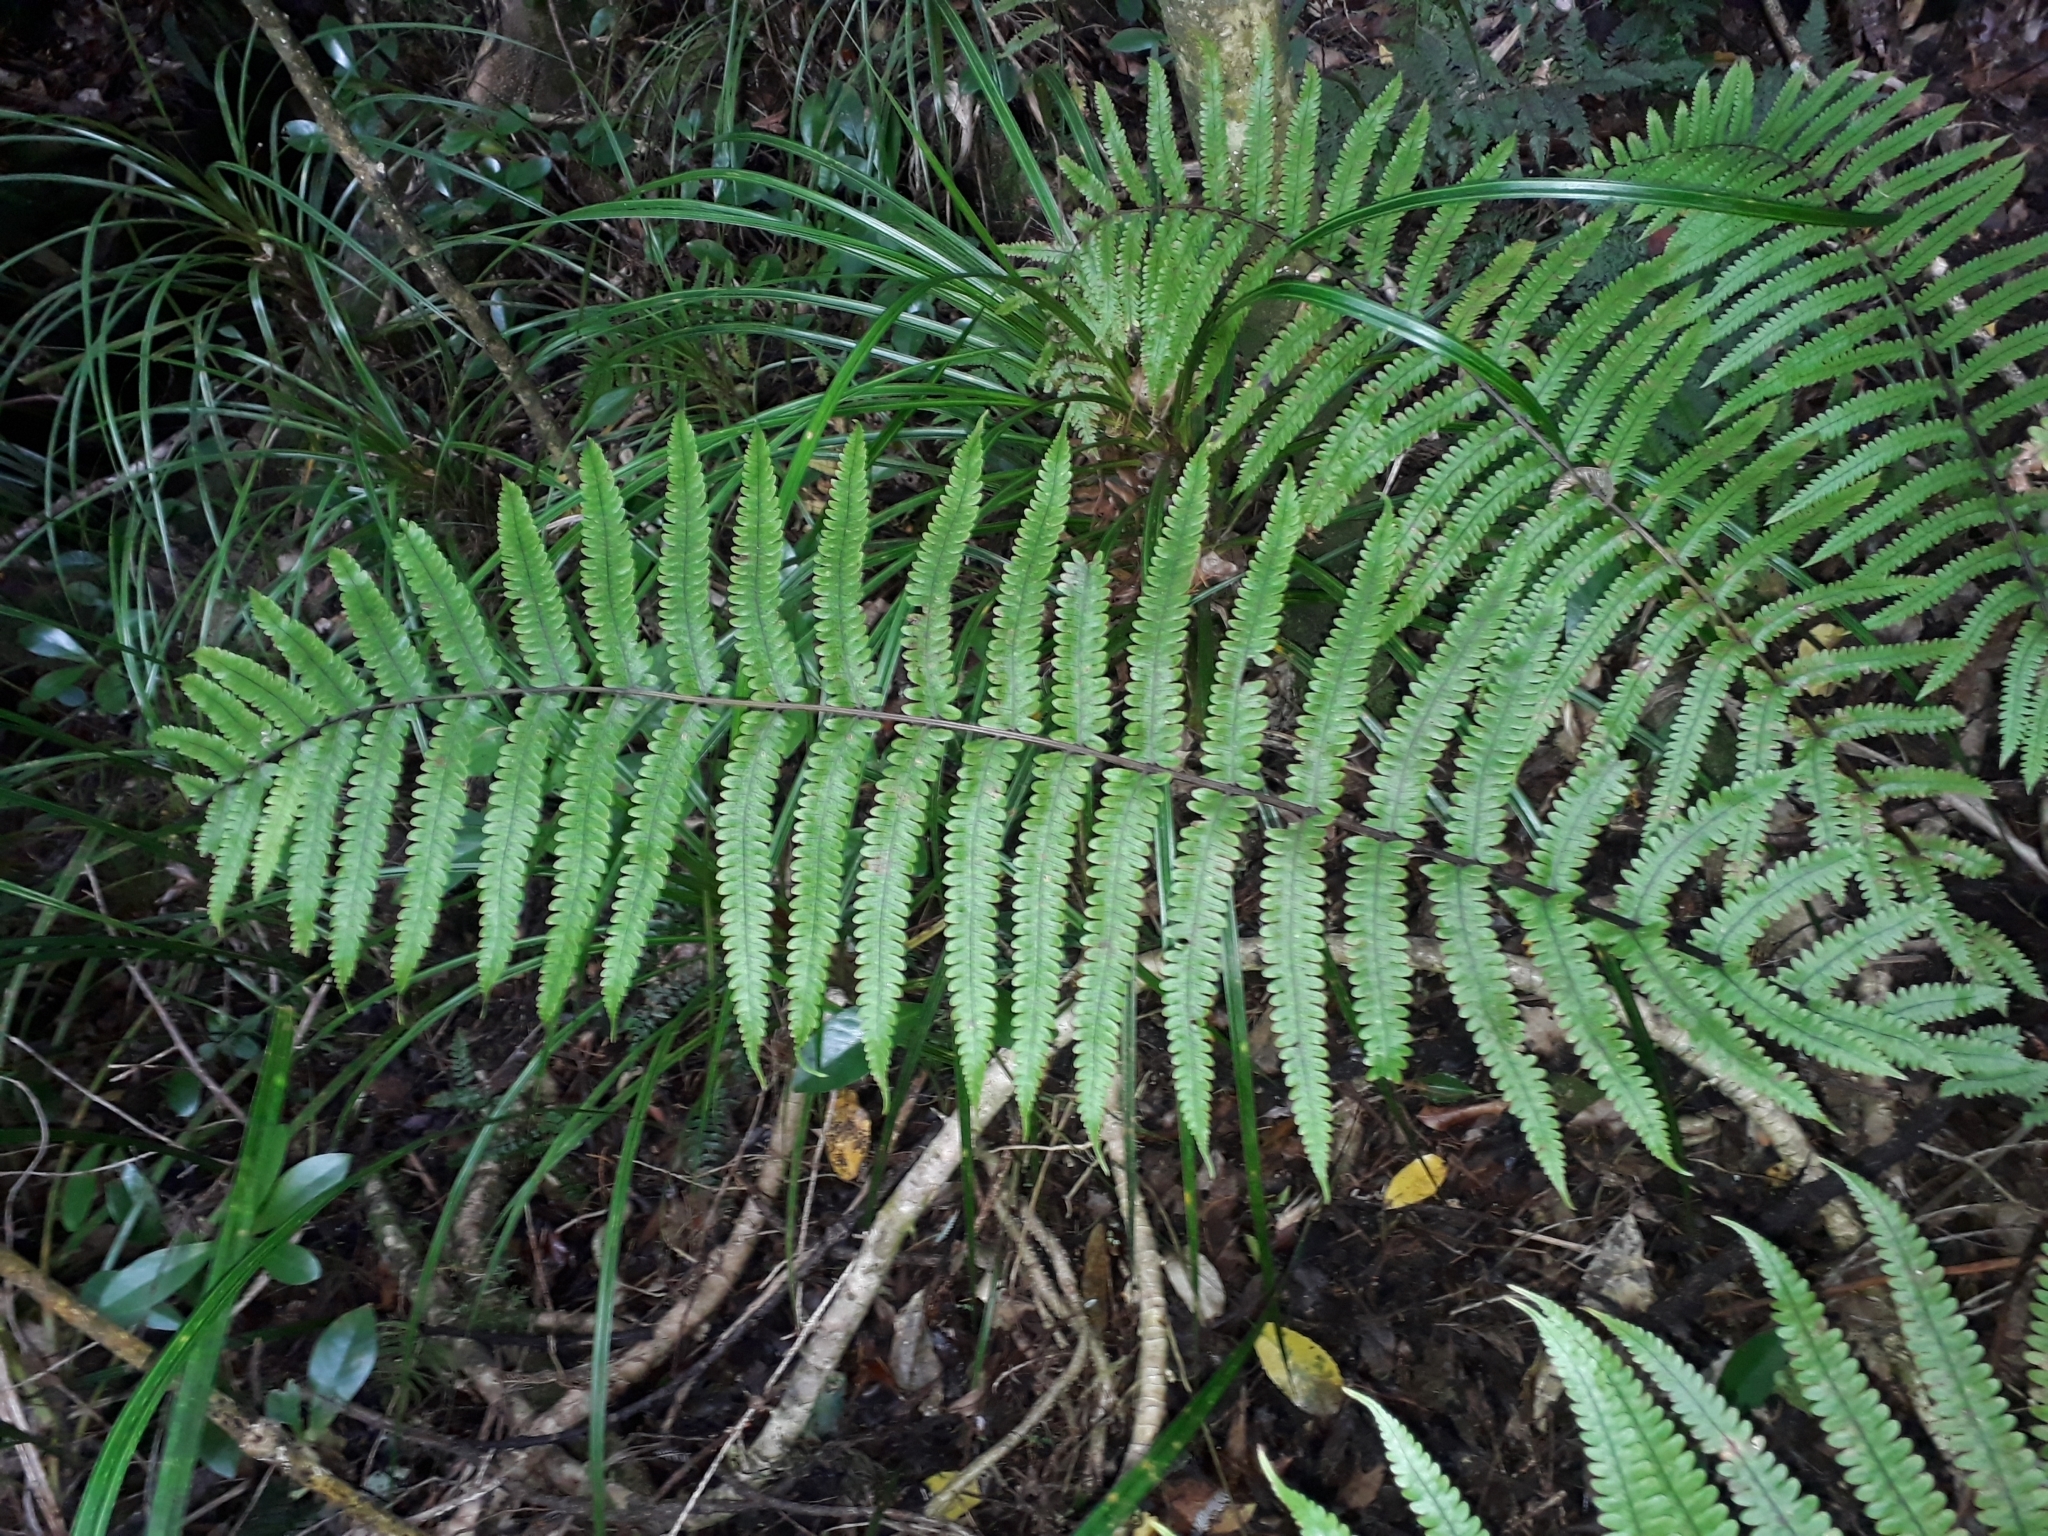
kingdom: Plantae
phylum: Tracheophyta
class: Polypodiopsida
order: Polypodiales
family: Thelypteridaceae
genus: Pakau
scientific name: Pakau pennigera
